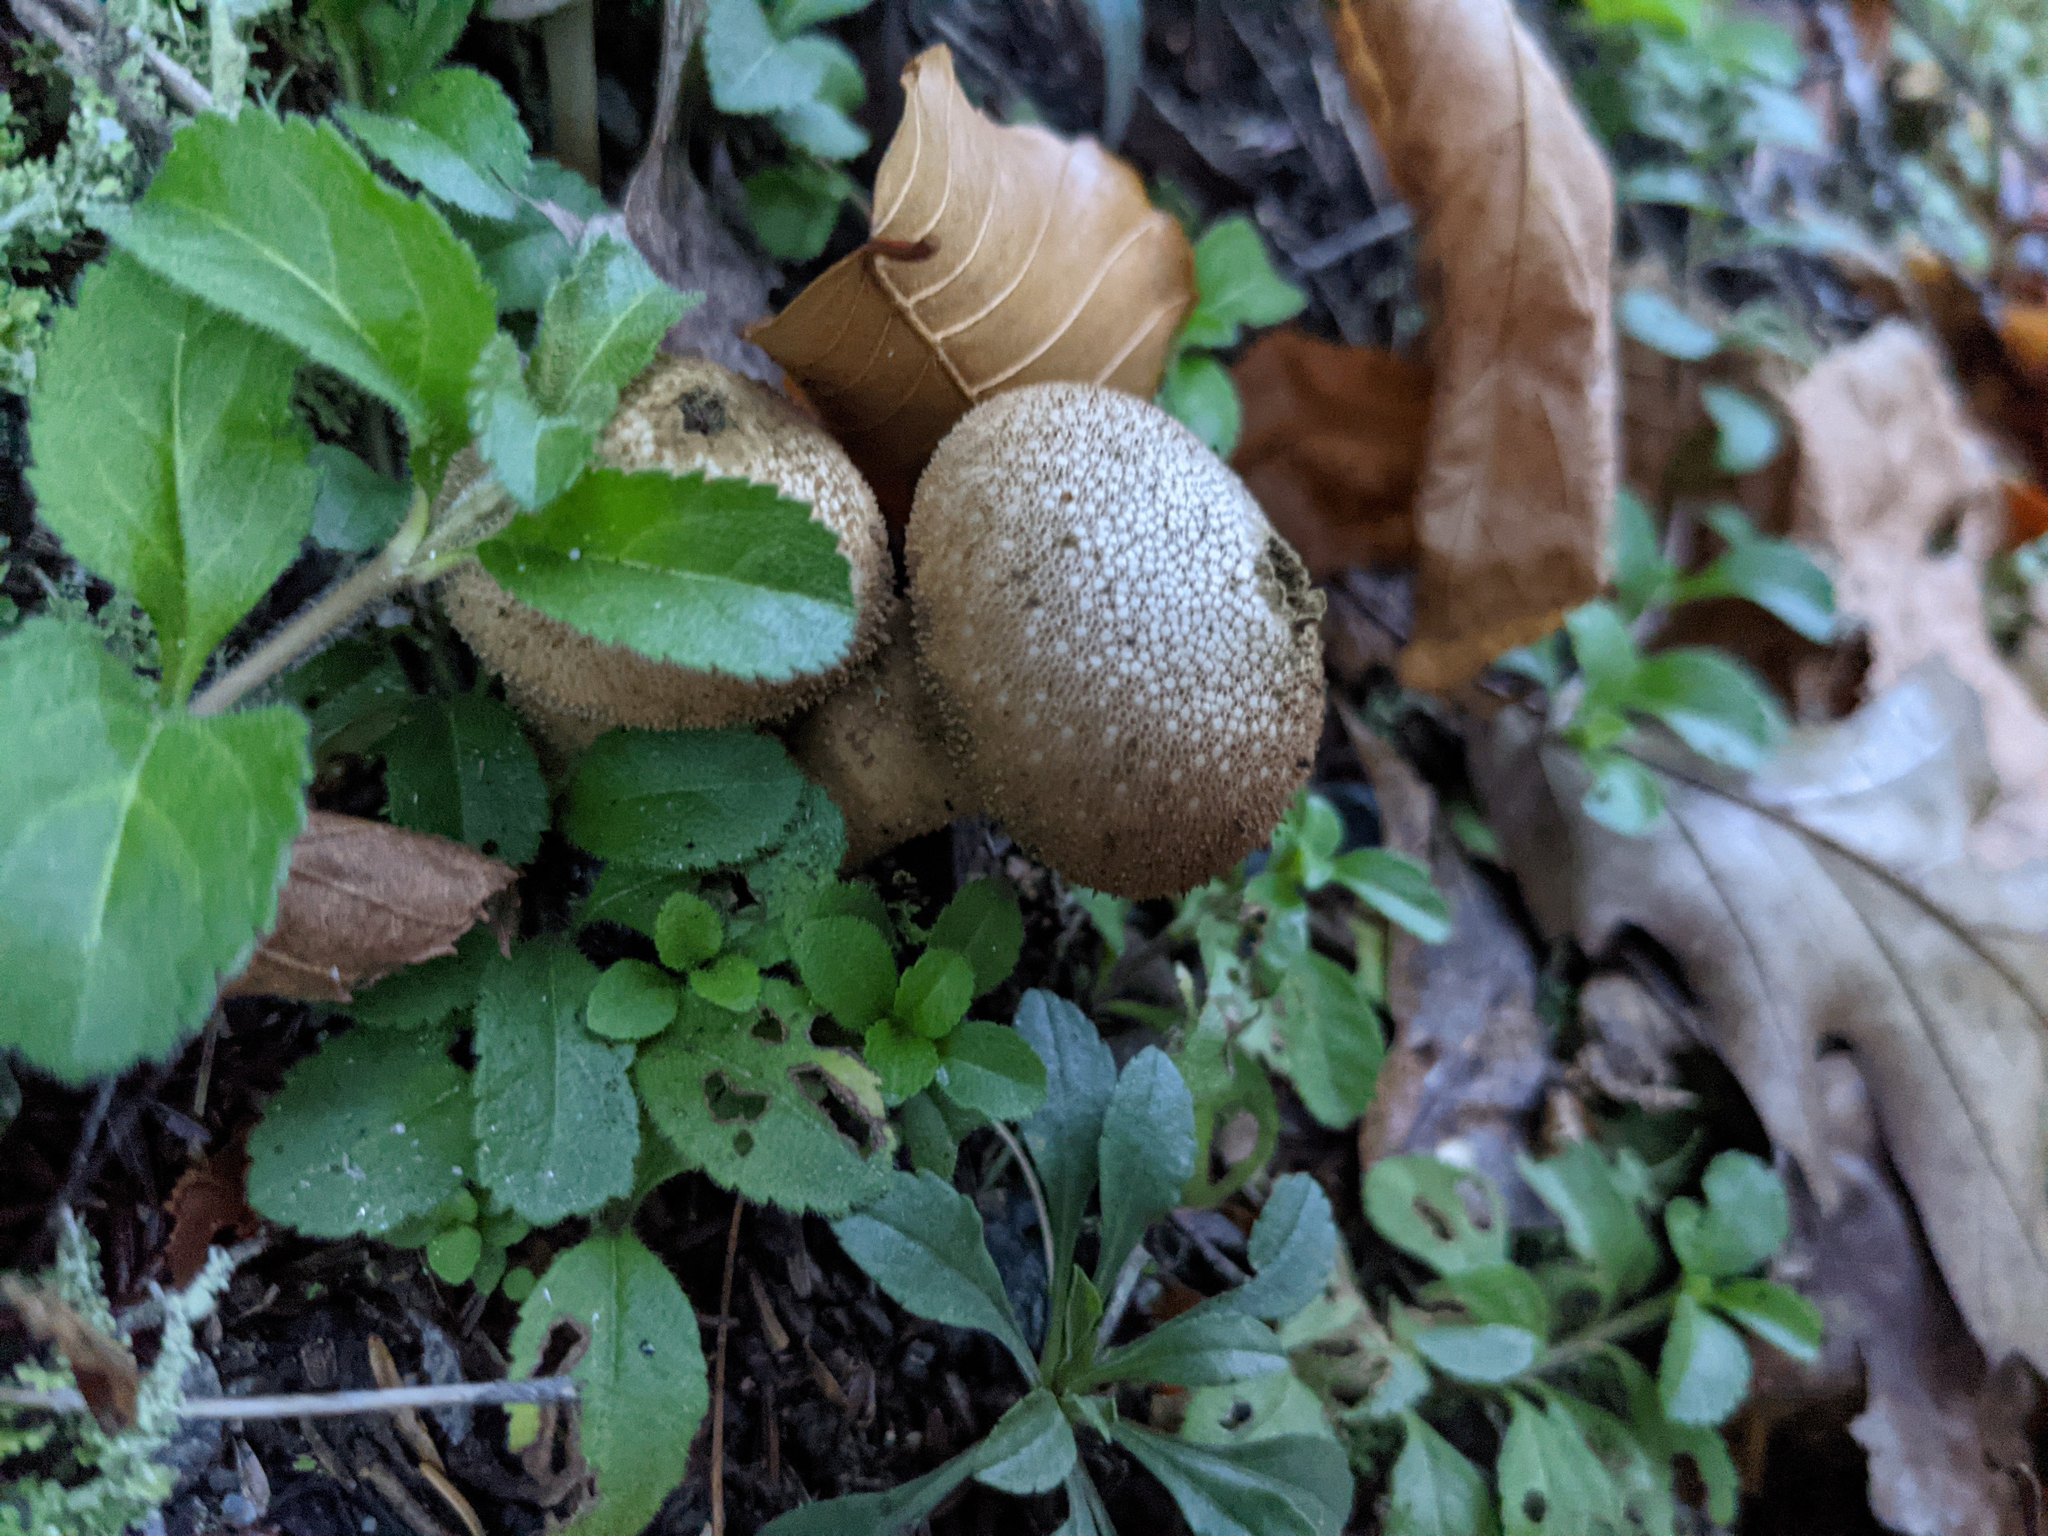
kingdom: Fungi
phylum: Basidiomycota
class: Agaricomycetes
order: Agaricales
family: Lycoperdaceae
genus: Lycoperdon
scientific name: Lycoperdon perlatum
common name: Common puffball
